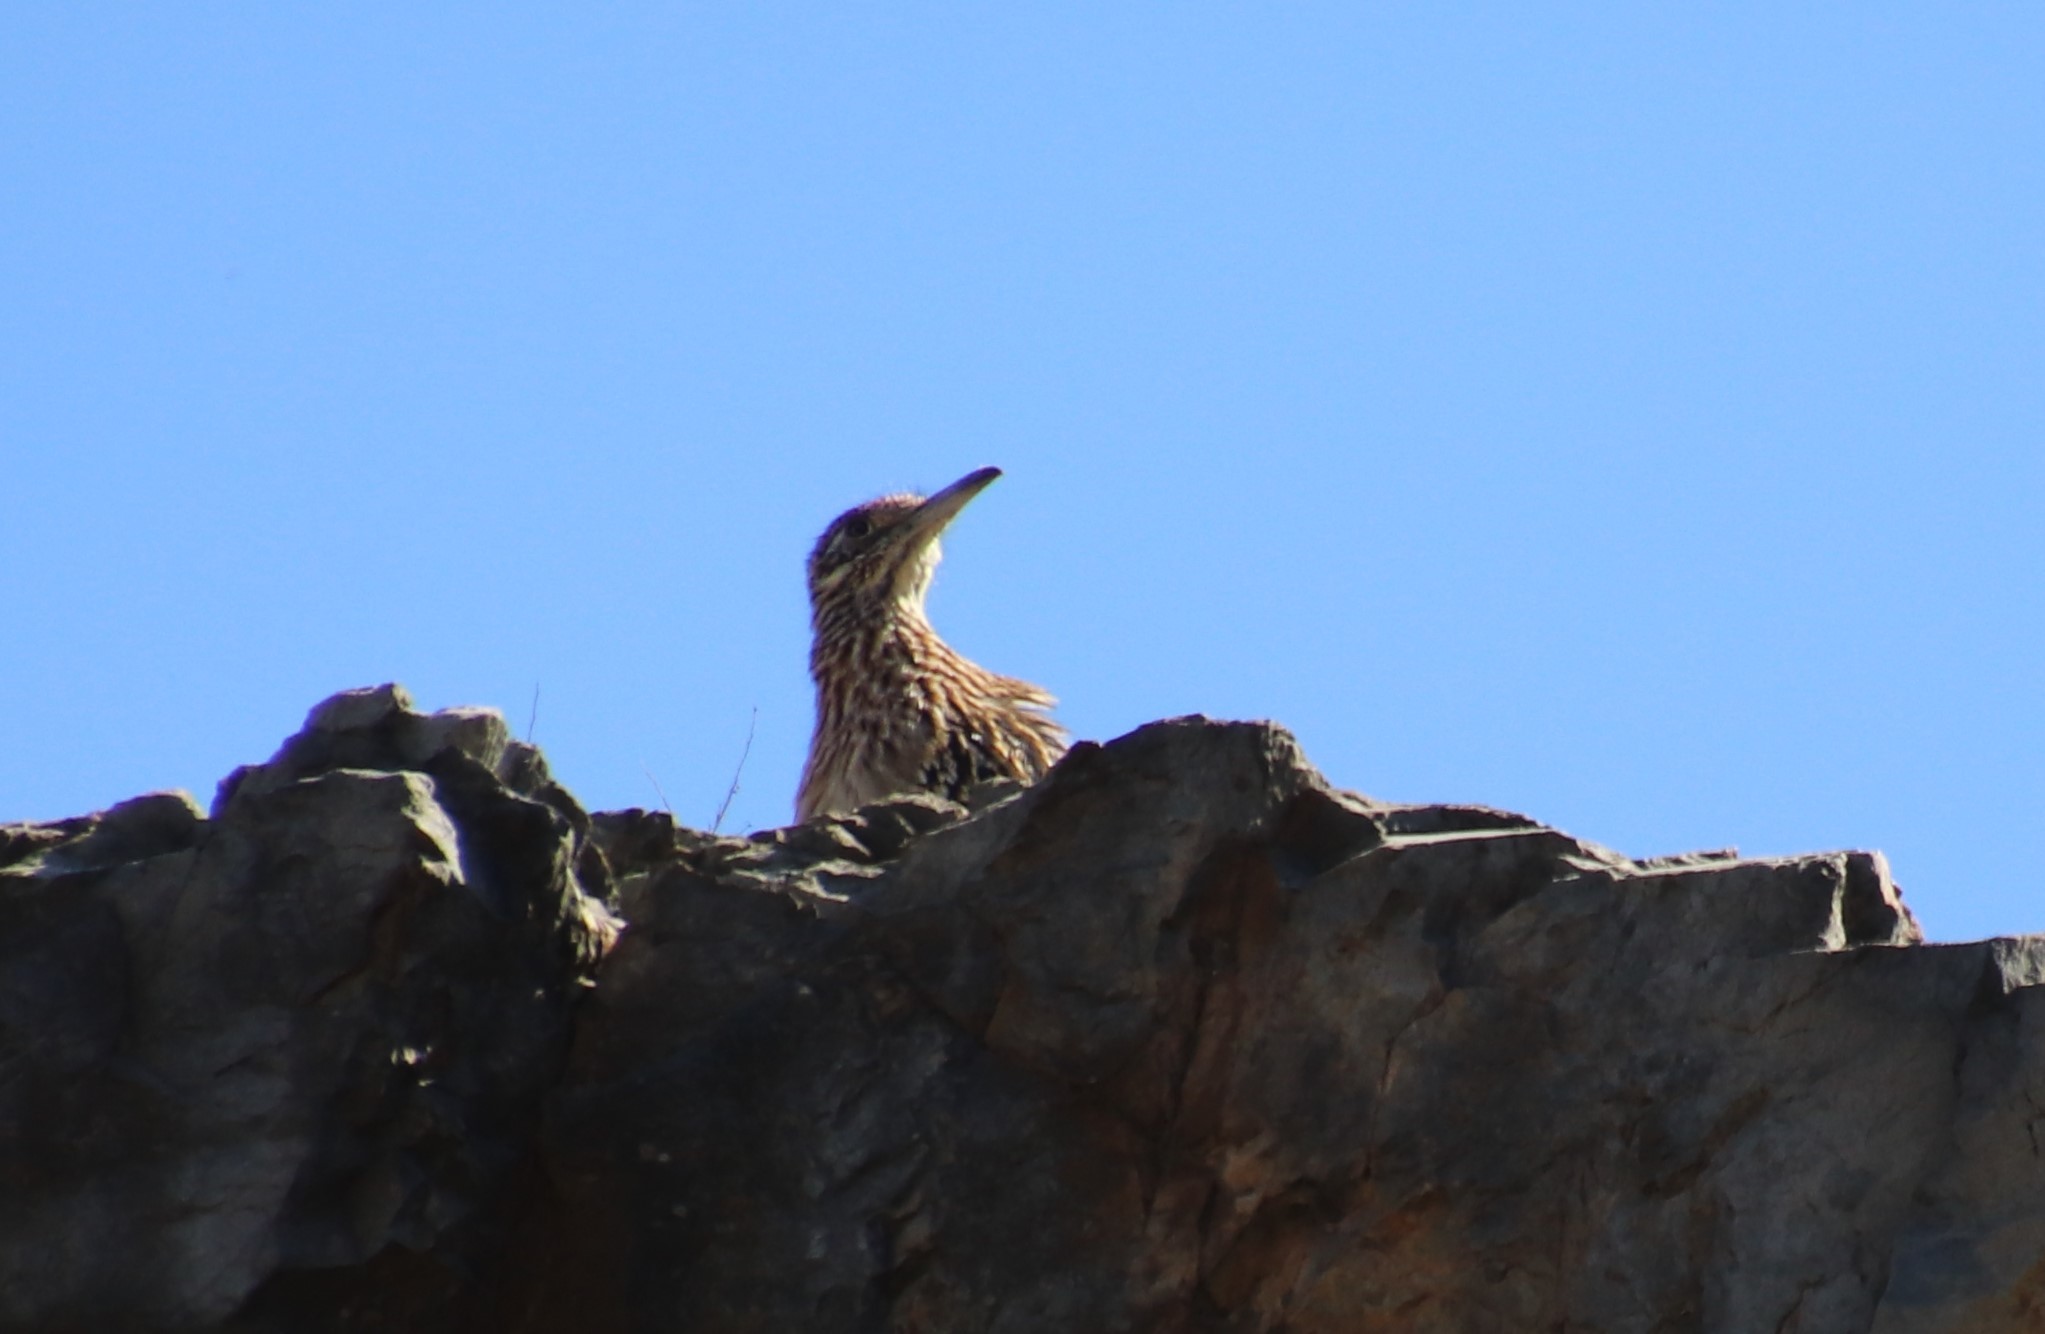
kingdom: Animalia
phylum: Chordata
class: Aves
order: Cuculiformes
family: Cuculidae
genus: Geococcyx
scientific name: Geococcyx californianus
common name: Greater roadrunner
